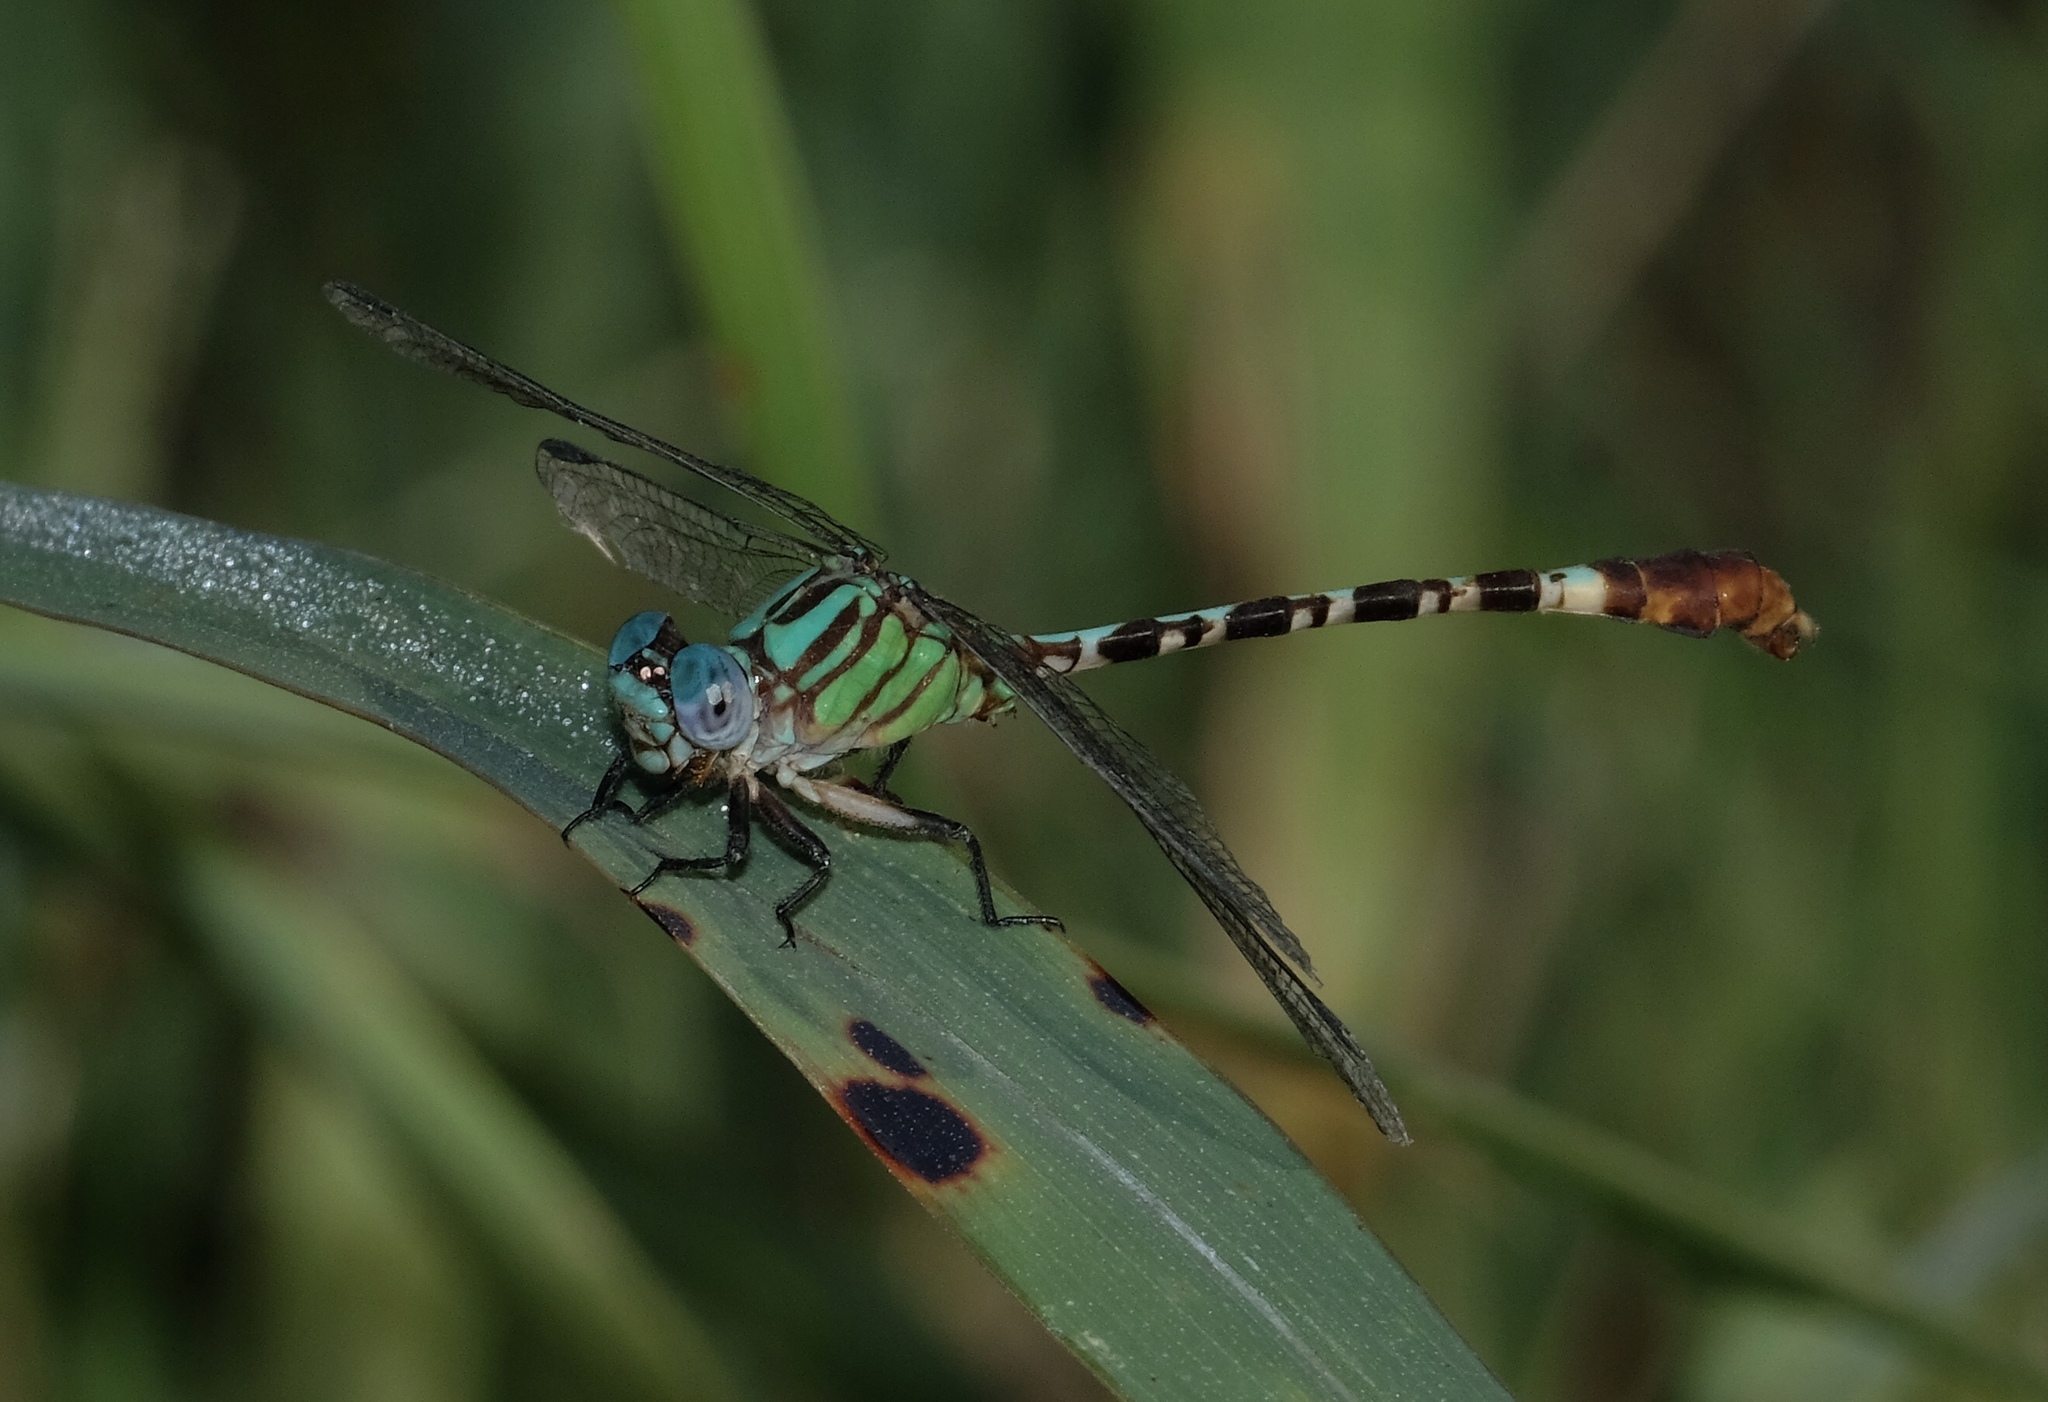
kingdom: Animalia
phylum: Arthropoda
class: Insecta
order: Odonata
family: Gomphidae
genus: Erpetogomphus
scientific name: Erpetogomphus eutainia
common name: Blue-faced ringtail
